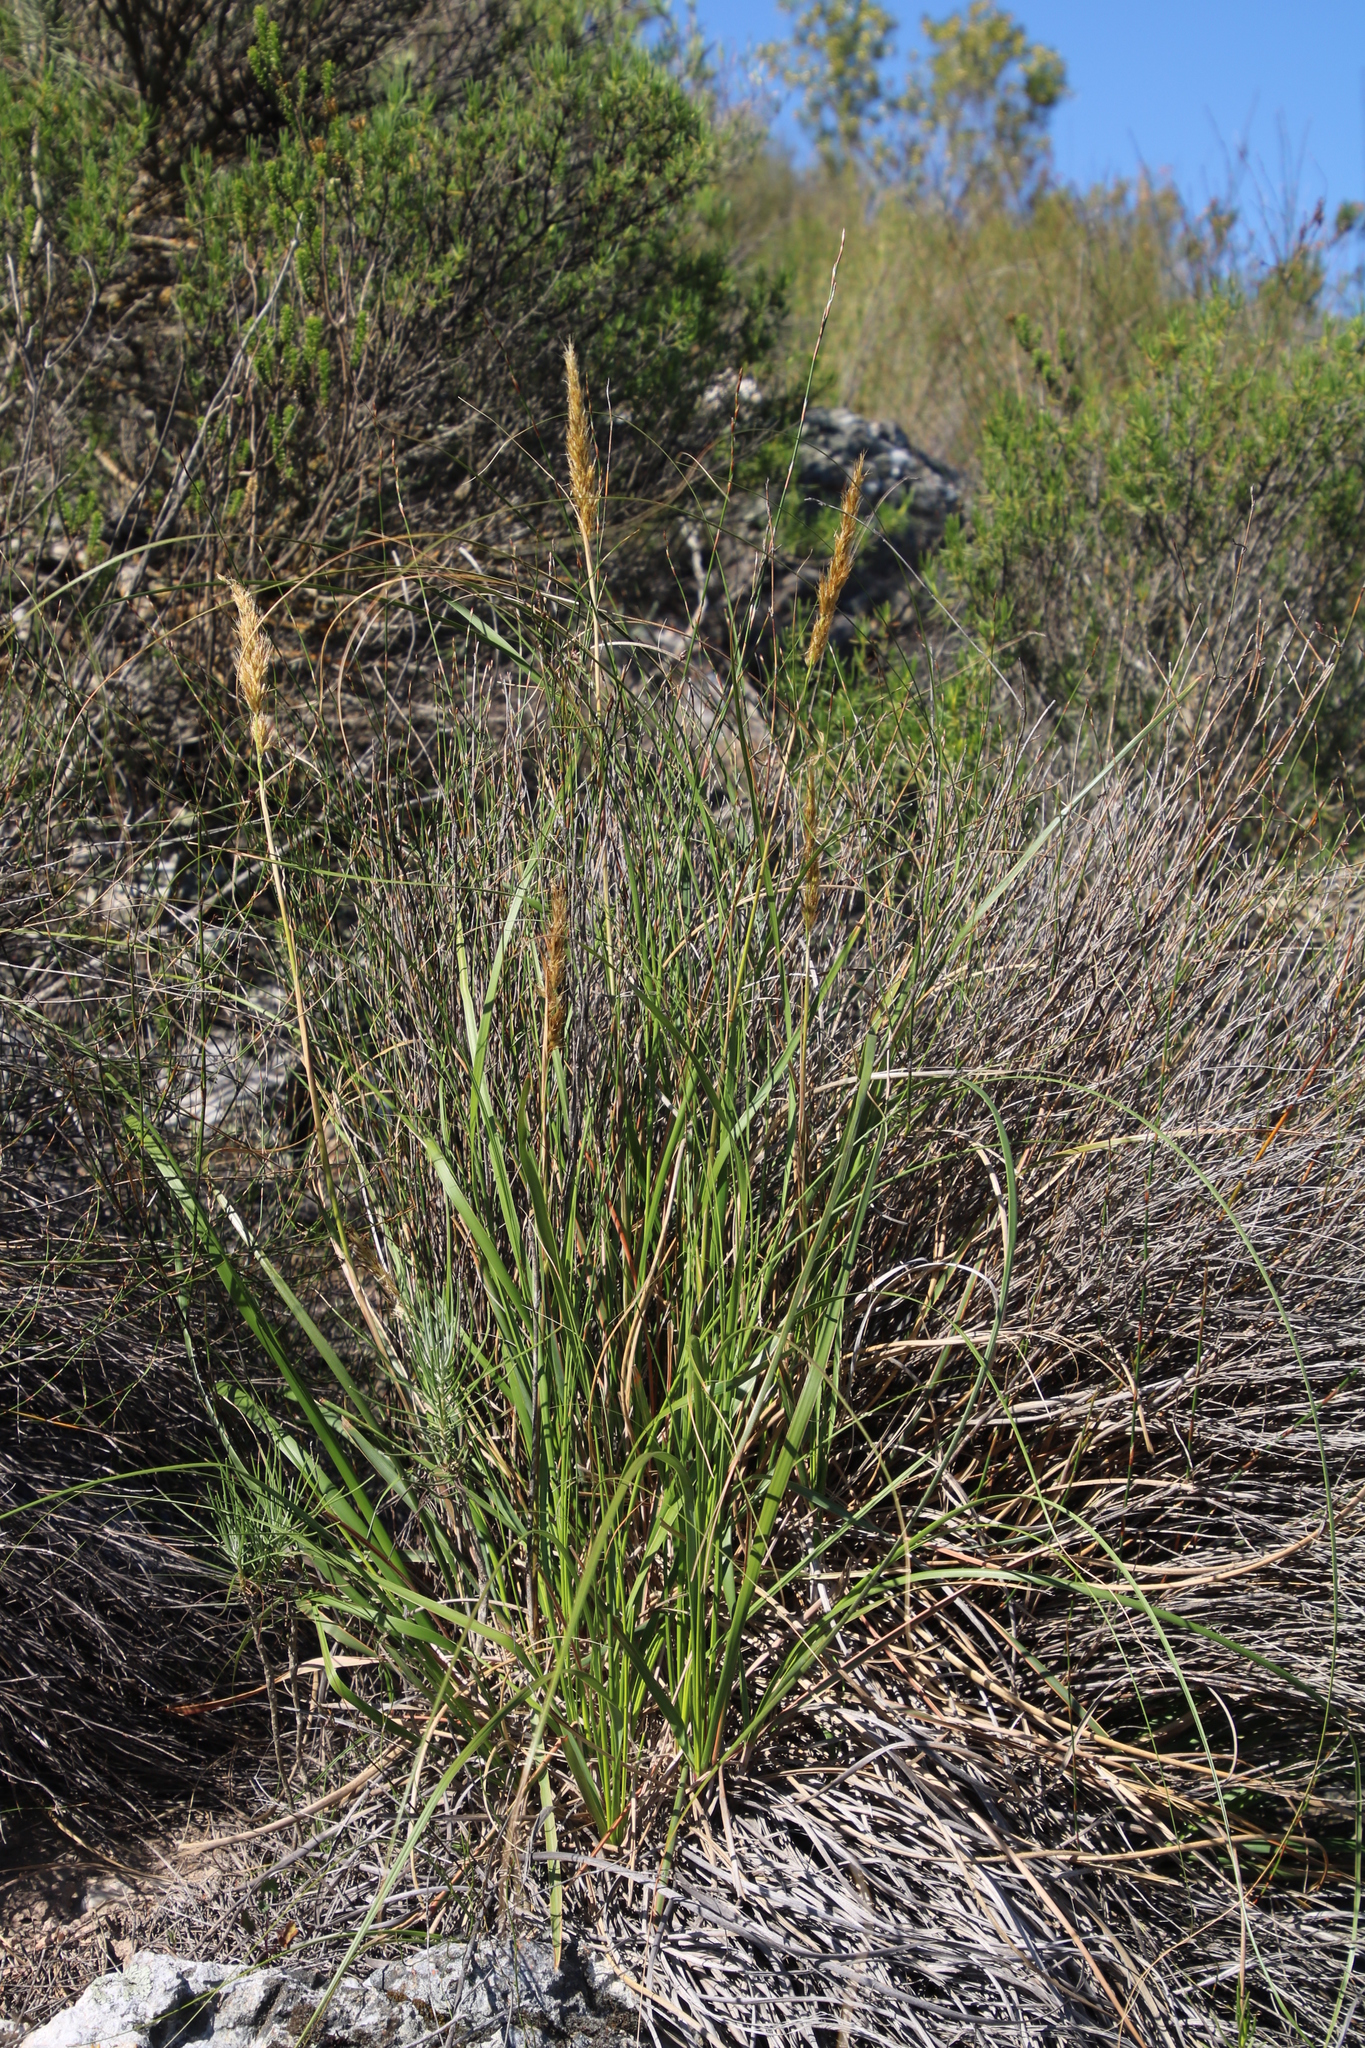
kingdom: Plantae
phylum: Tracheophyta
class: Liliopsida
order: Poales
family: Poaceae
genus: Capeochloa
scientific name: Capeochloa arundinacea
